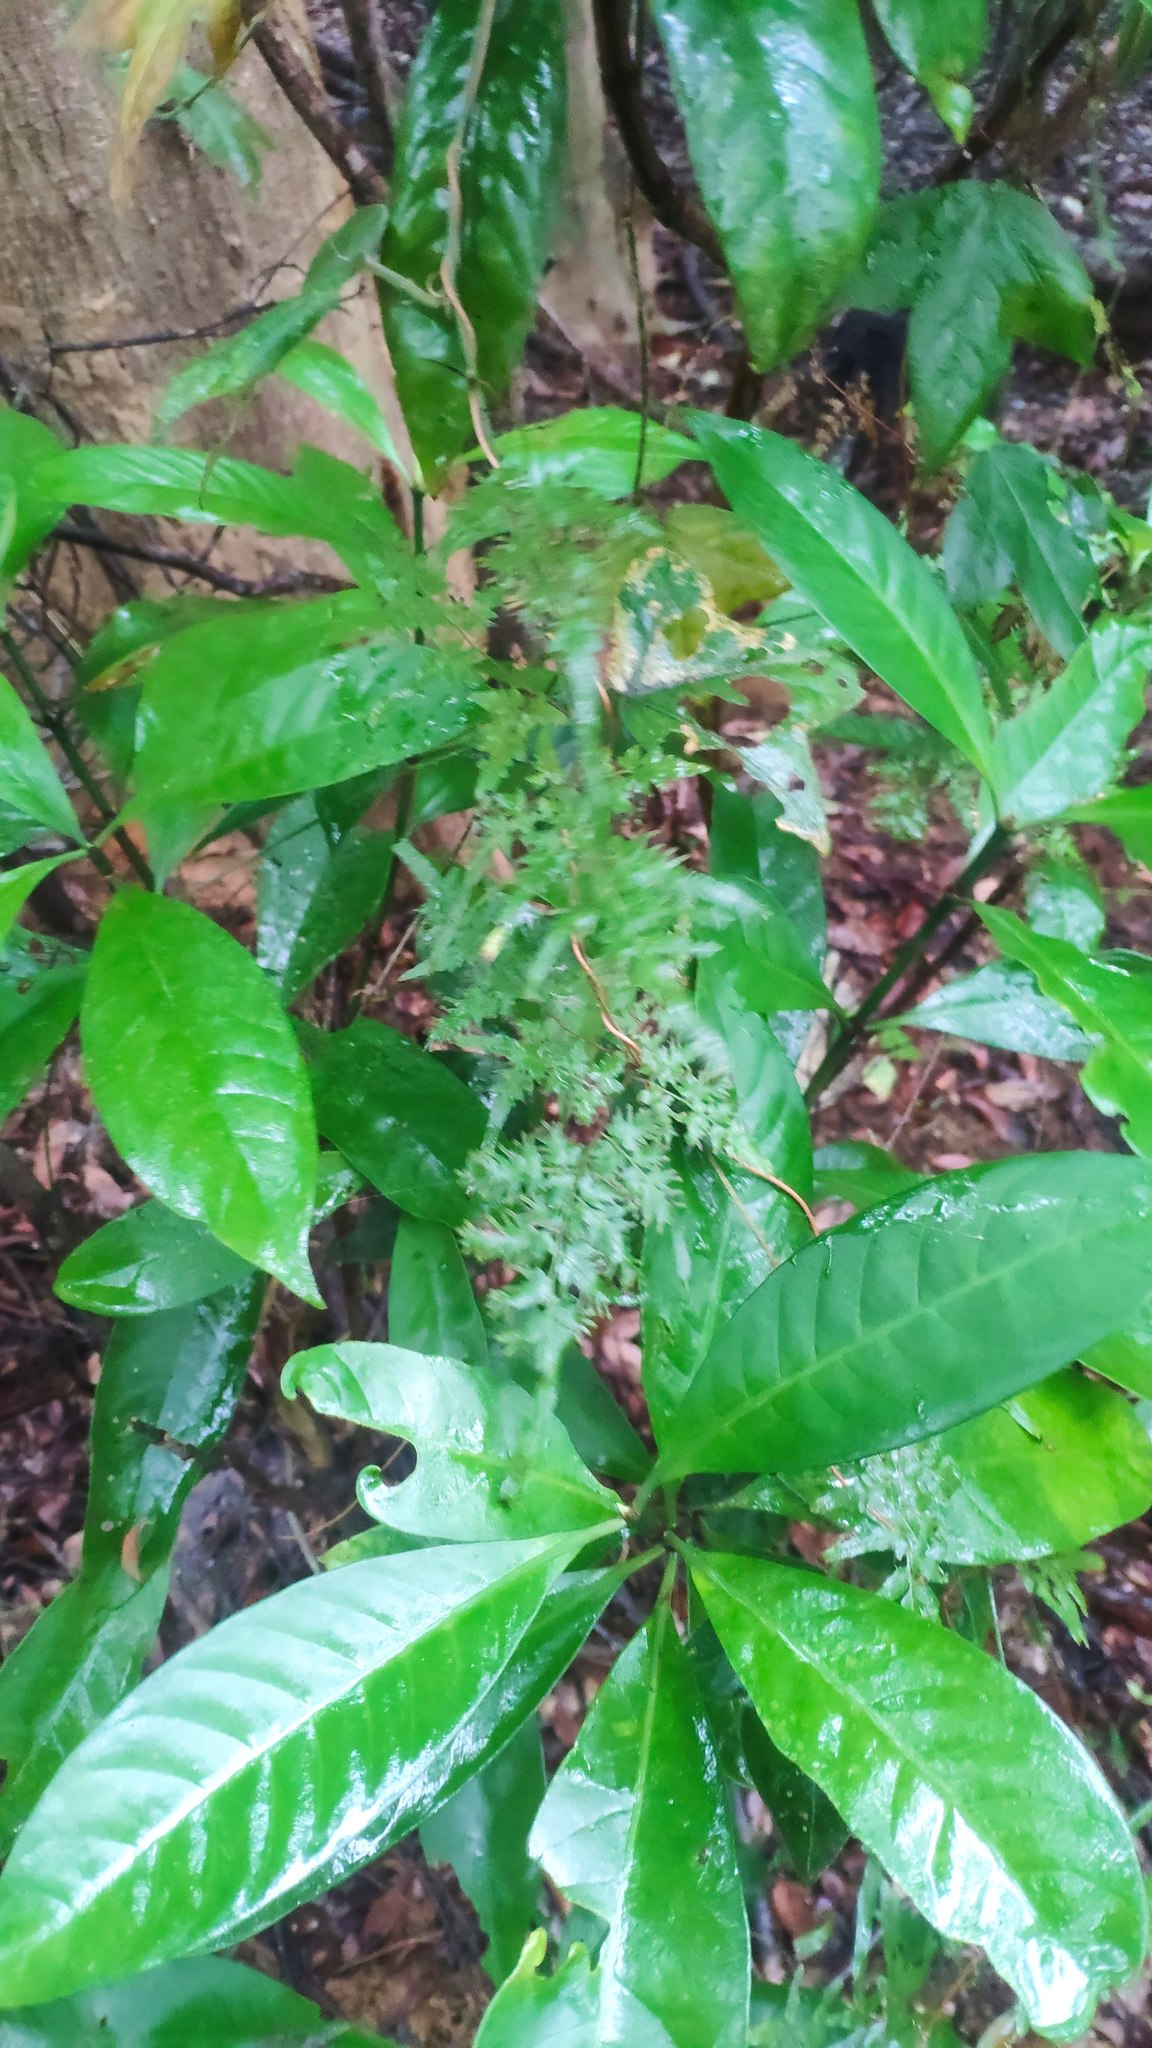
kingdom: Plantae
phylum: Tracheophyta
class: Magnoliopsida
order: Gentianales
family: Rubiaceae
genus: Psychotria
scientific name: Psychotria asiatica
